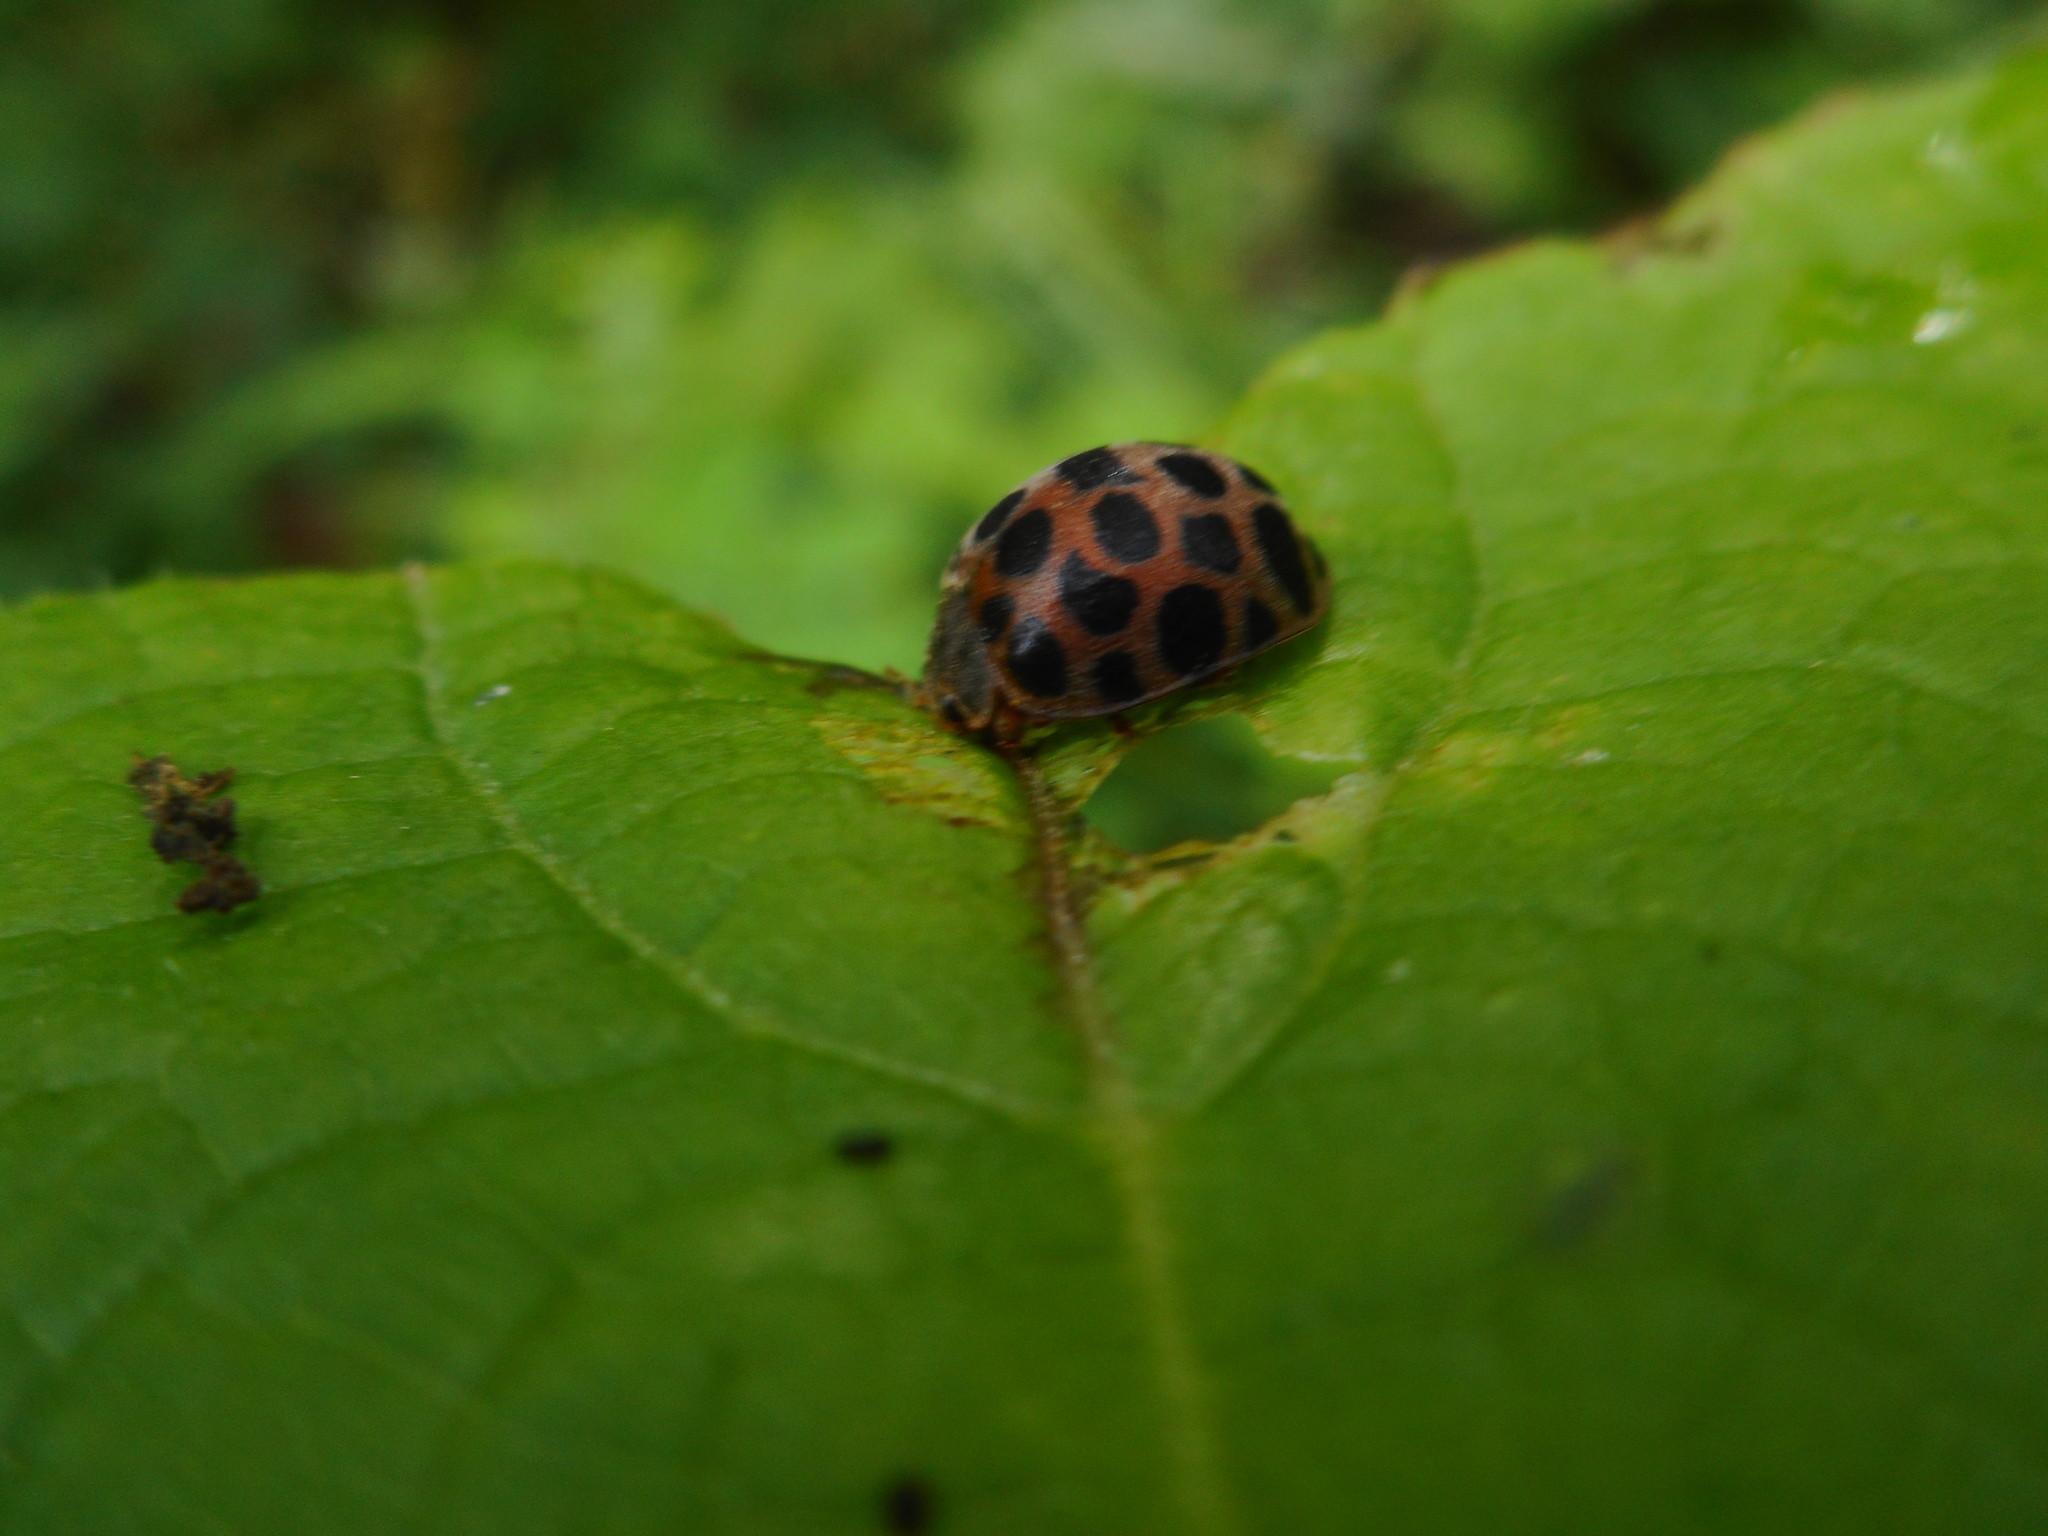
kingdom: Animalia
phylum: Arthropoda
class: Insecta
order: Coleoptera
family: Coccinellidae
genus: Henosepilachna
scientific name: Henosepilachna vigintioctomaculata
